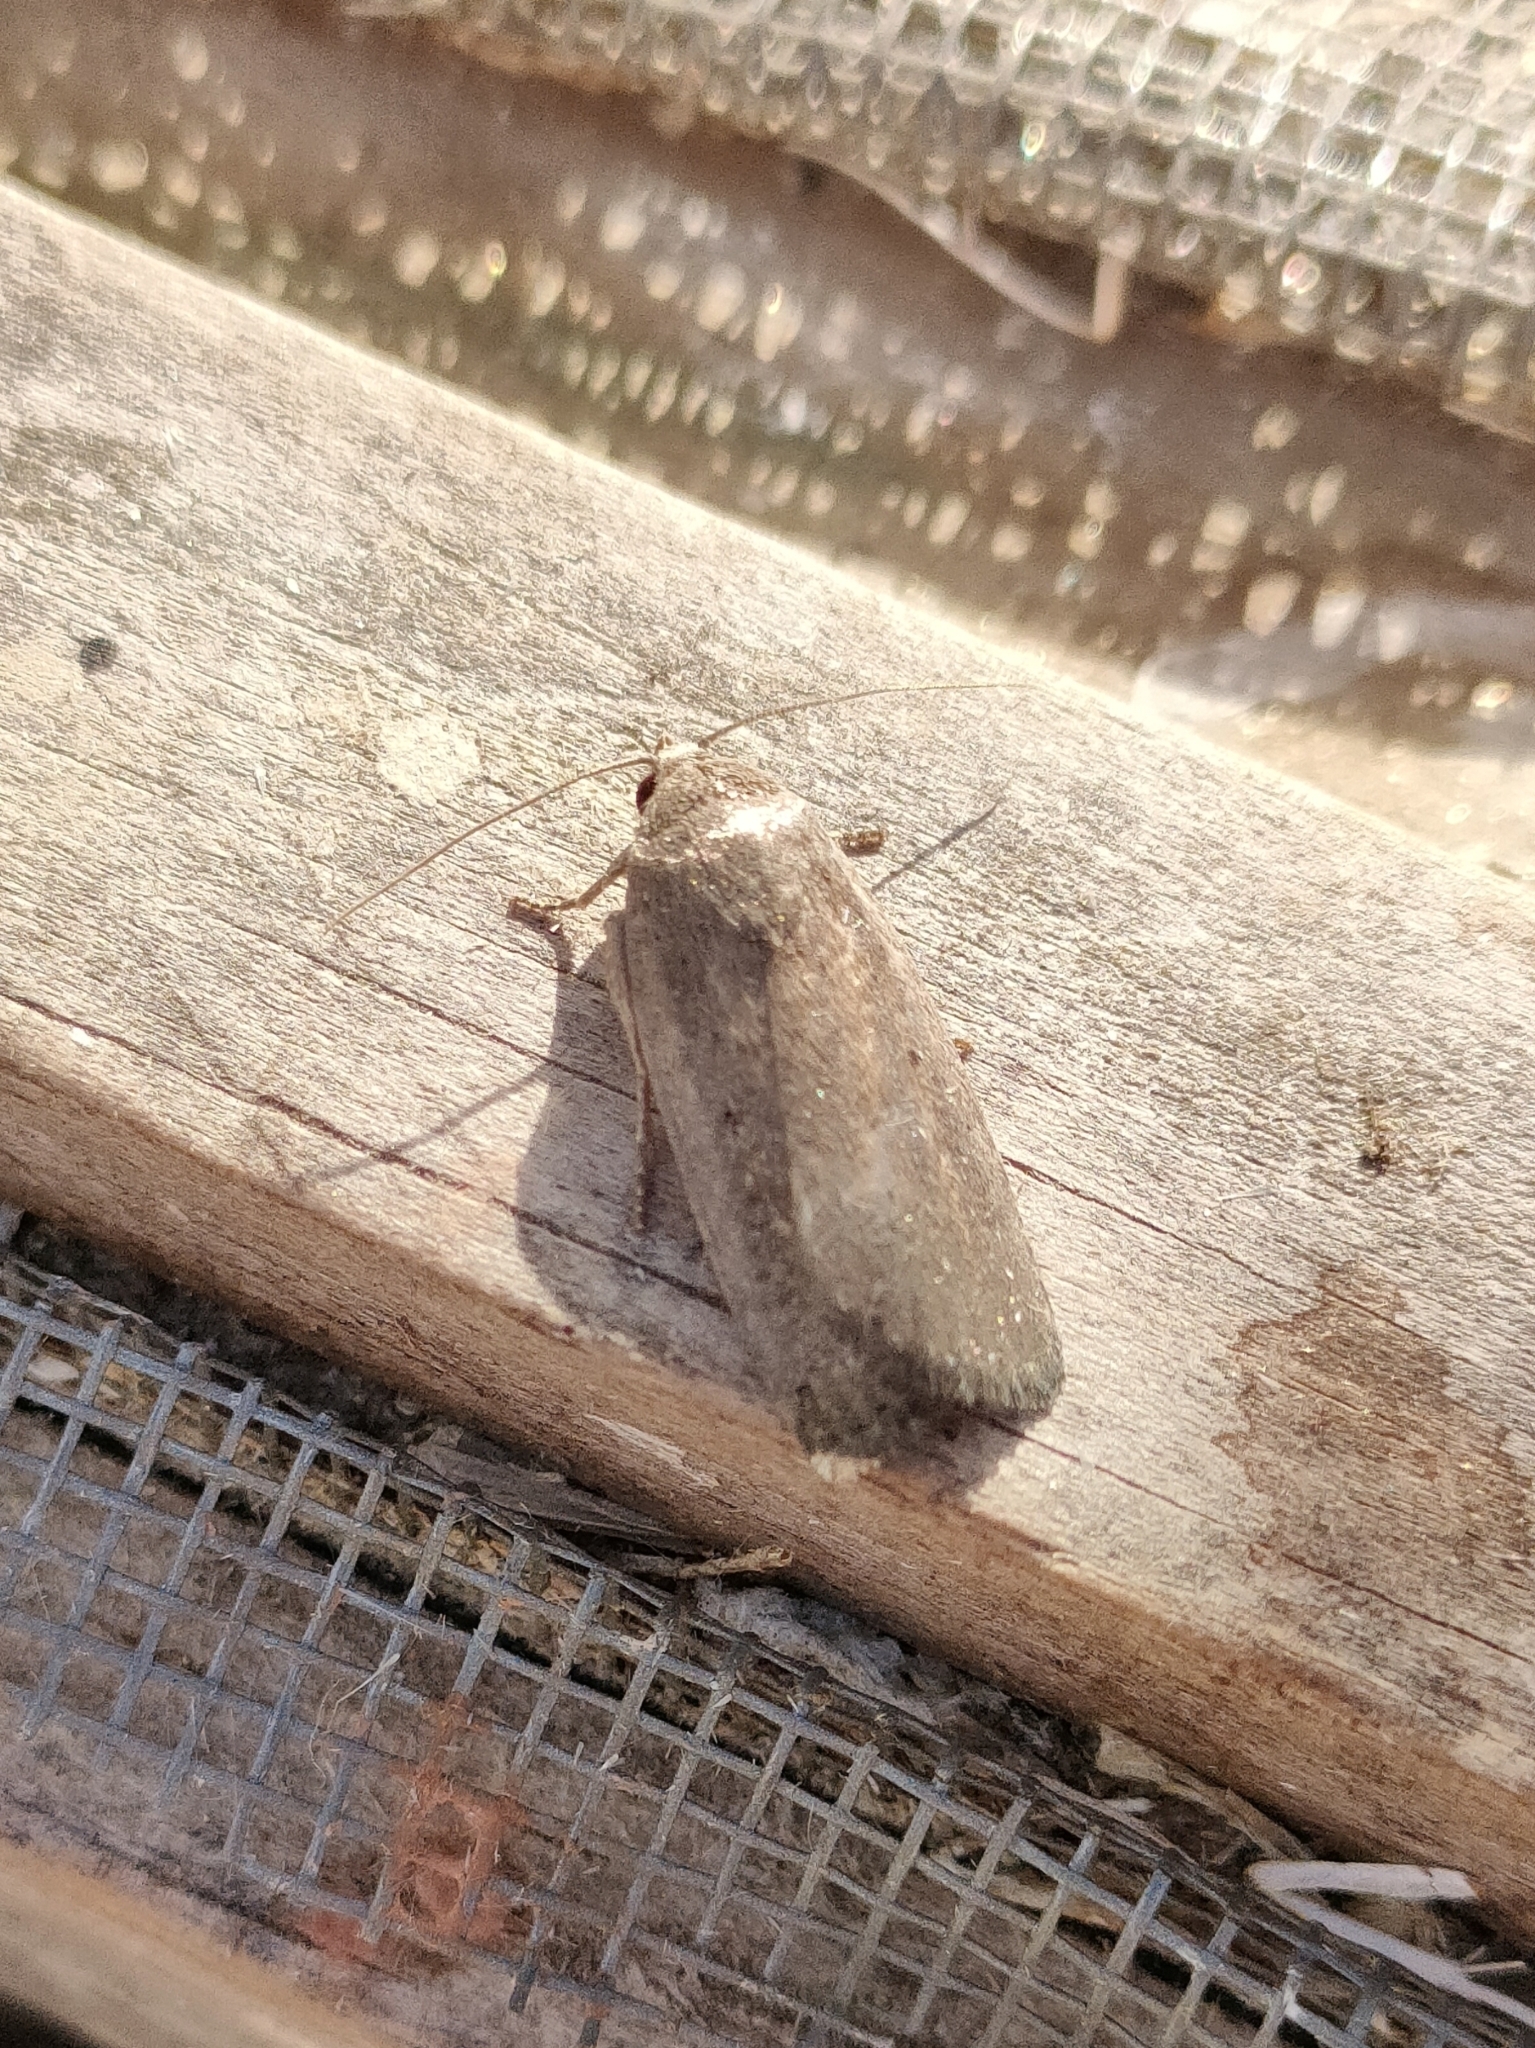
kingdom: Animalia
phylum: Arthropoda
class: Insecta
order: Lepidoptera
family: Noctuidae
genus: Athetis
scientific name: Athetis hospes
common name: Porter's rustic
